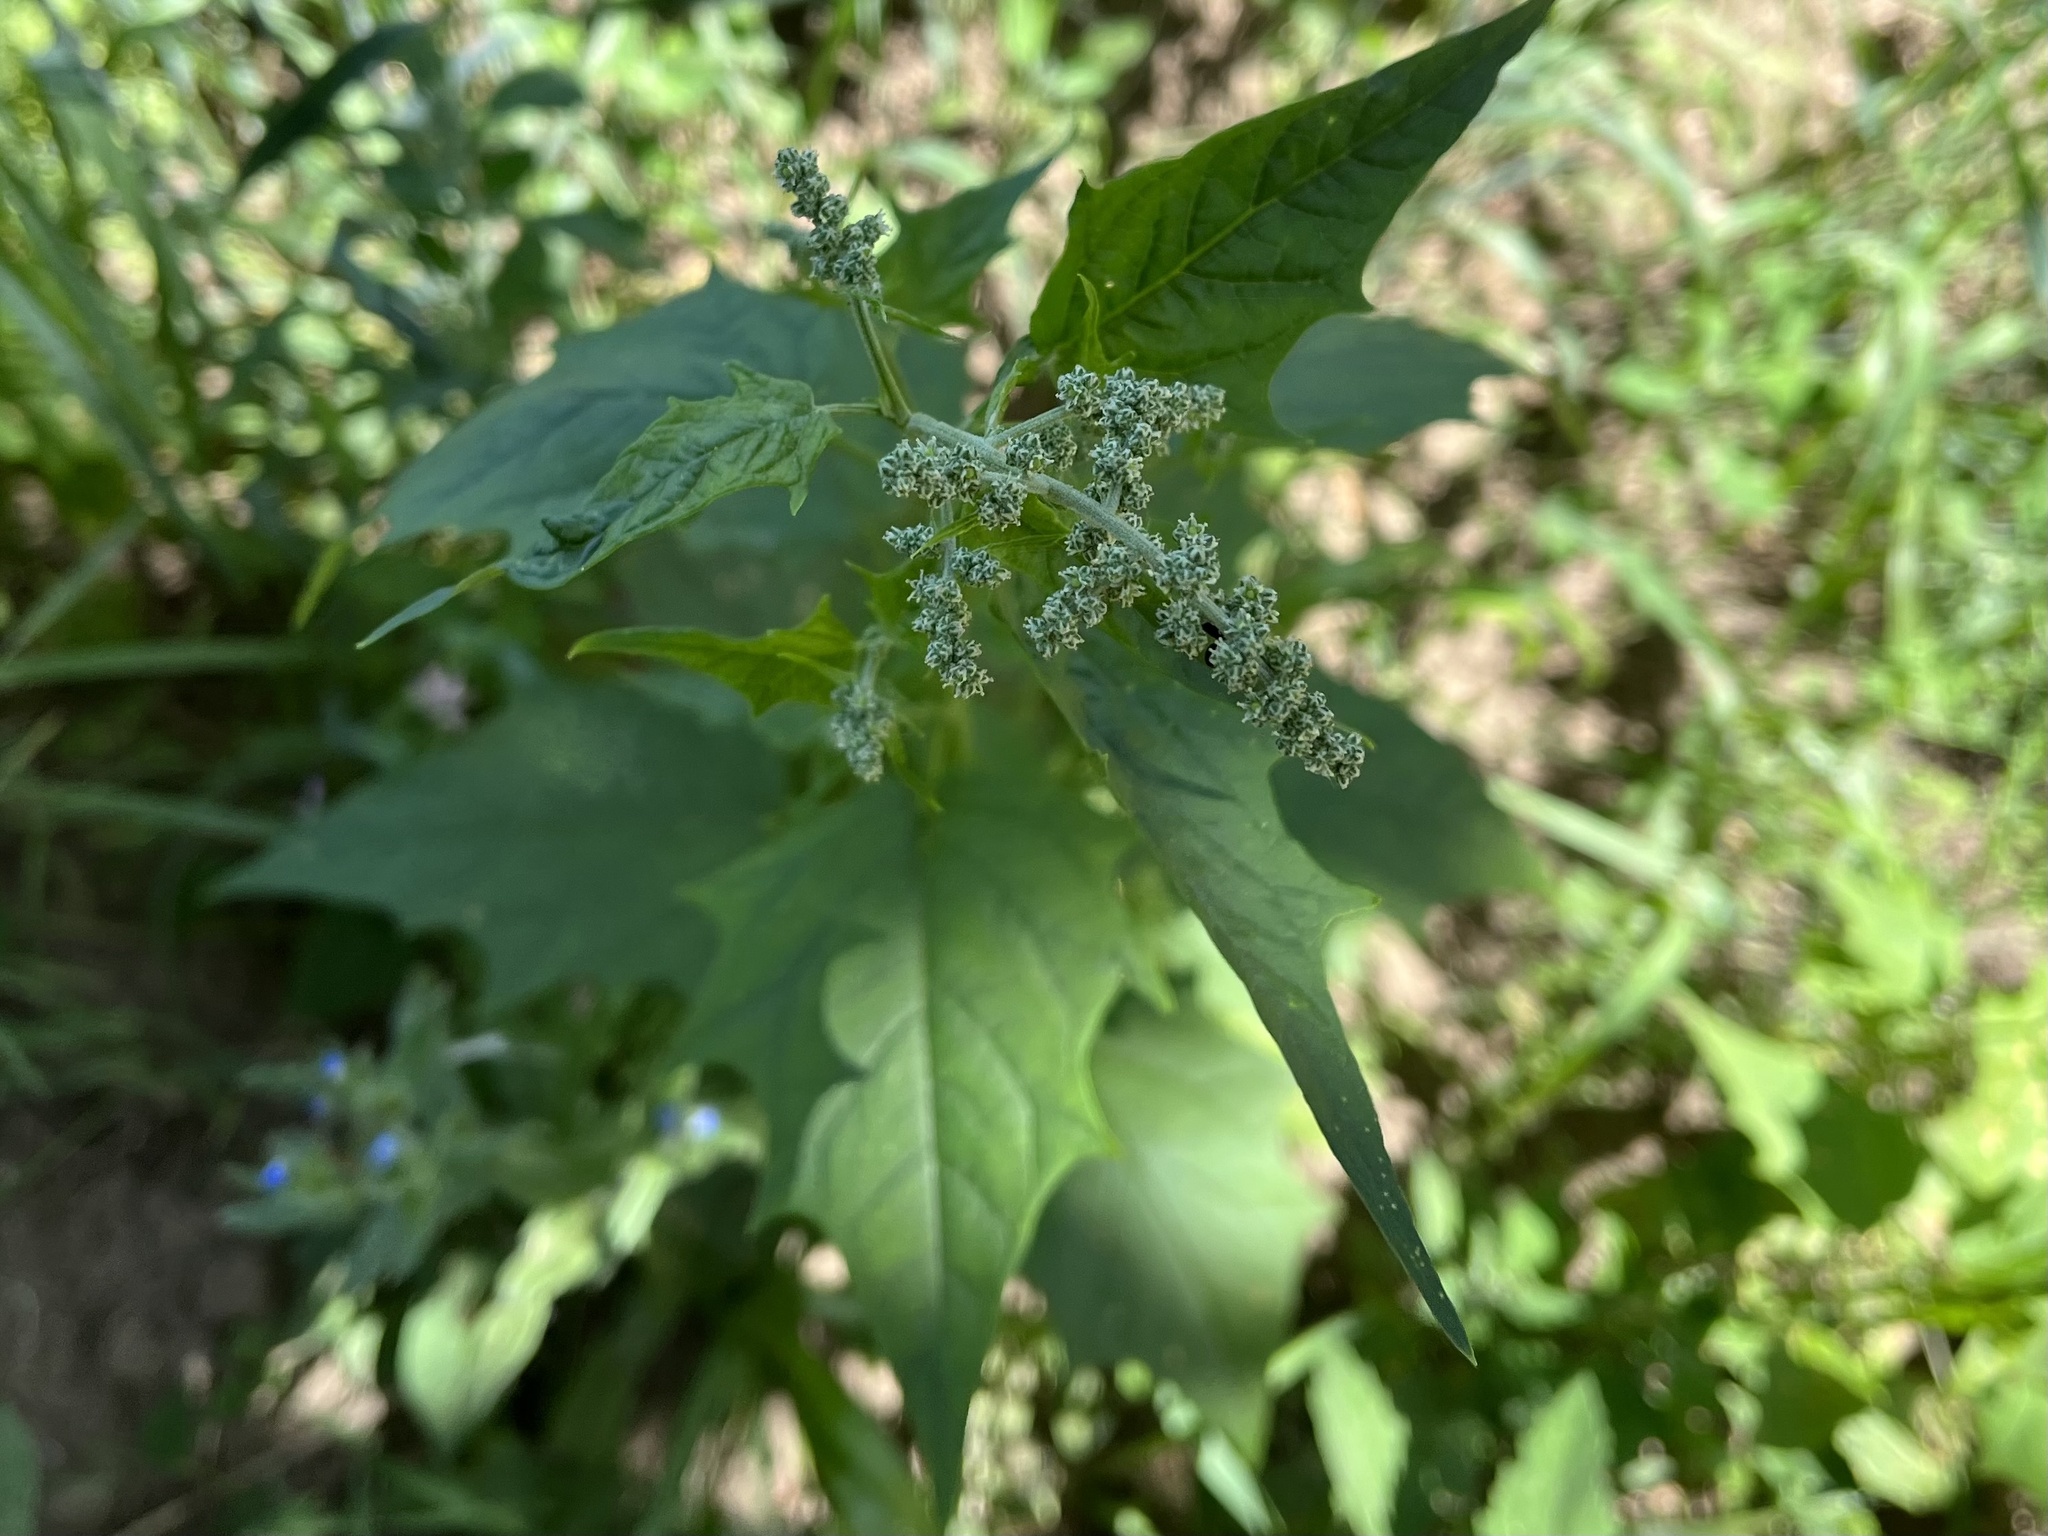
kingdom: Plantae
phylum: Tracheophyta
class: Magnoliopsida
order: Caryophyllales
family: Amaranthaceae
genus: Chenopodiastrum
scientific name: Chenopodiastrum hybridum
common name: Mapleleaf goosefoot
